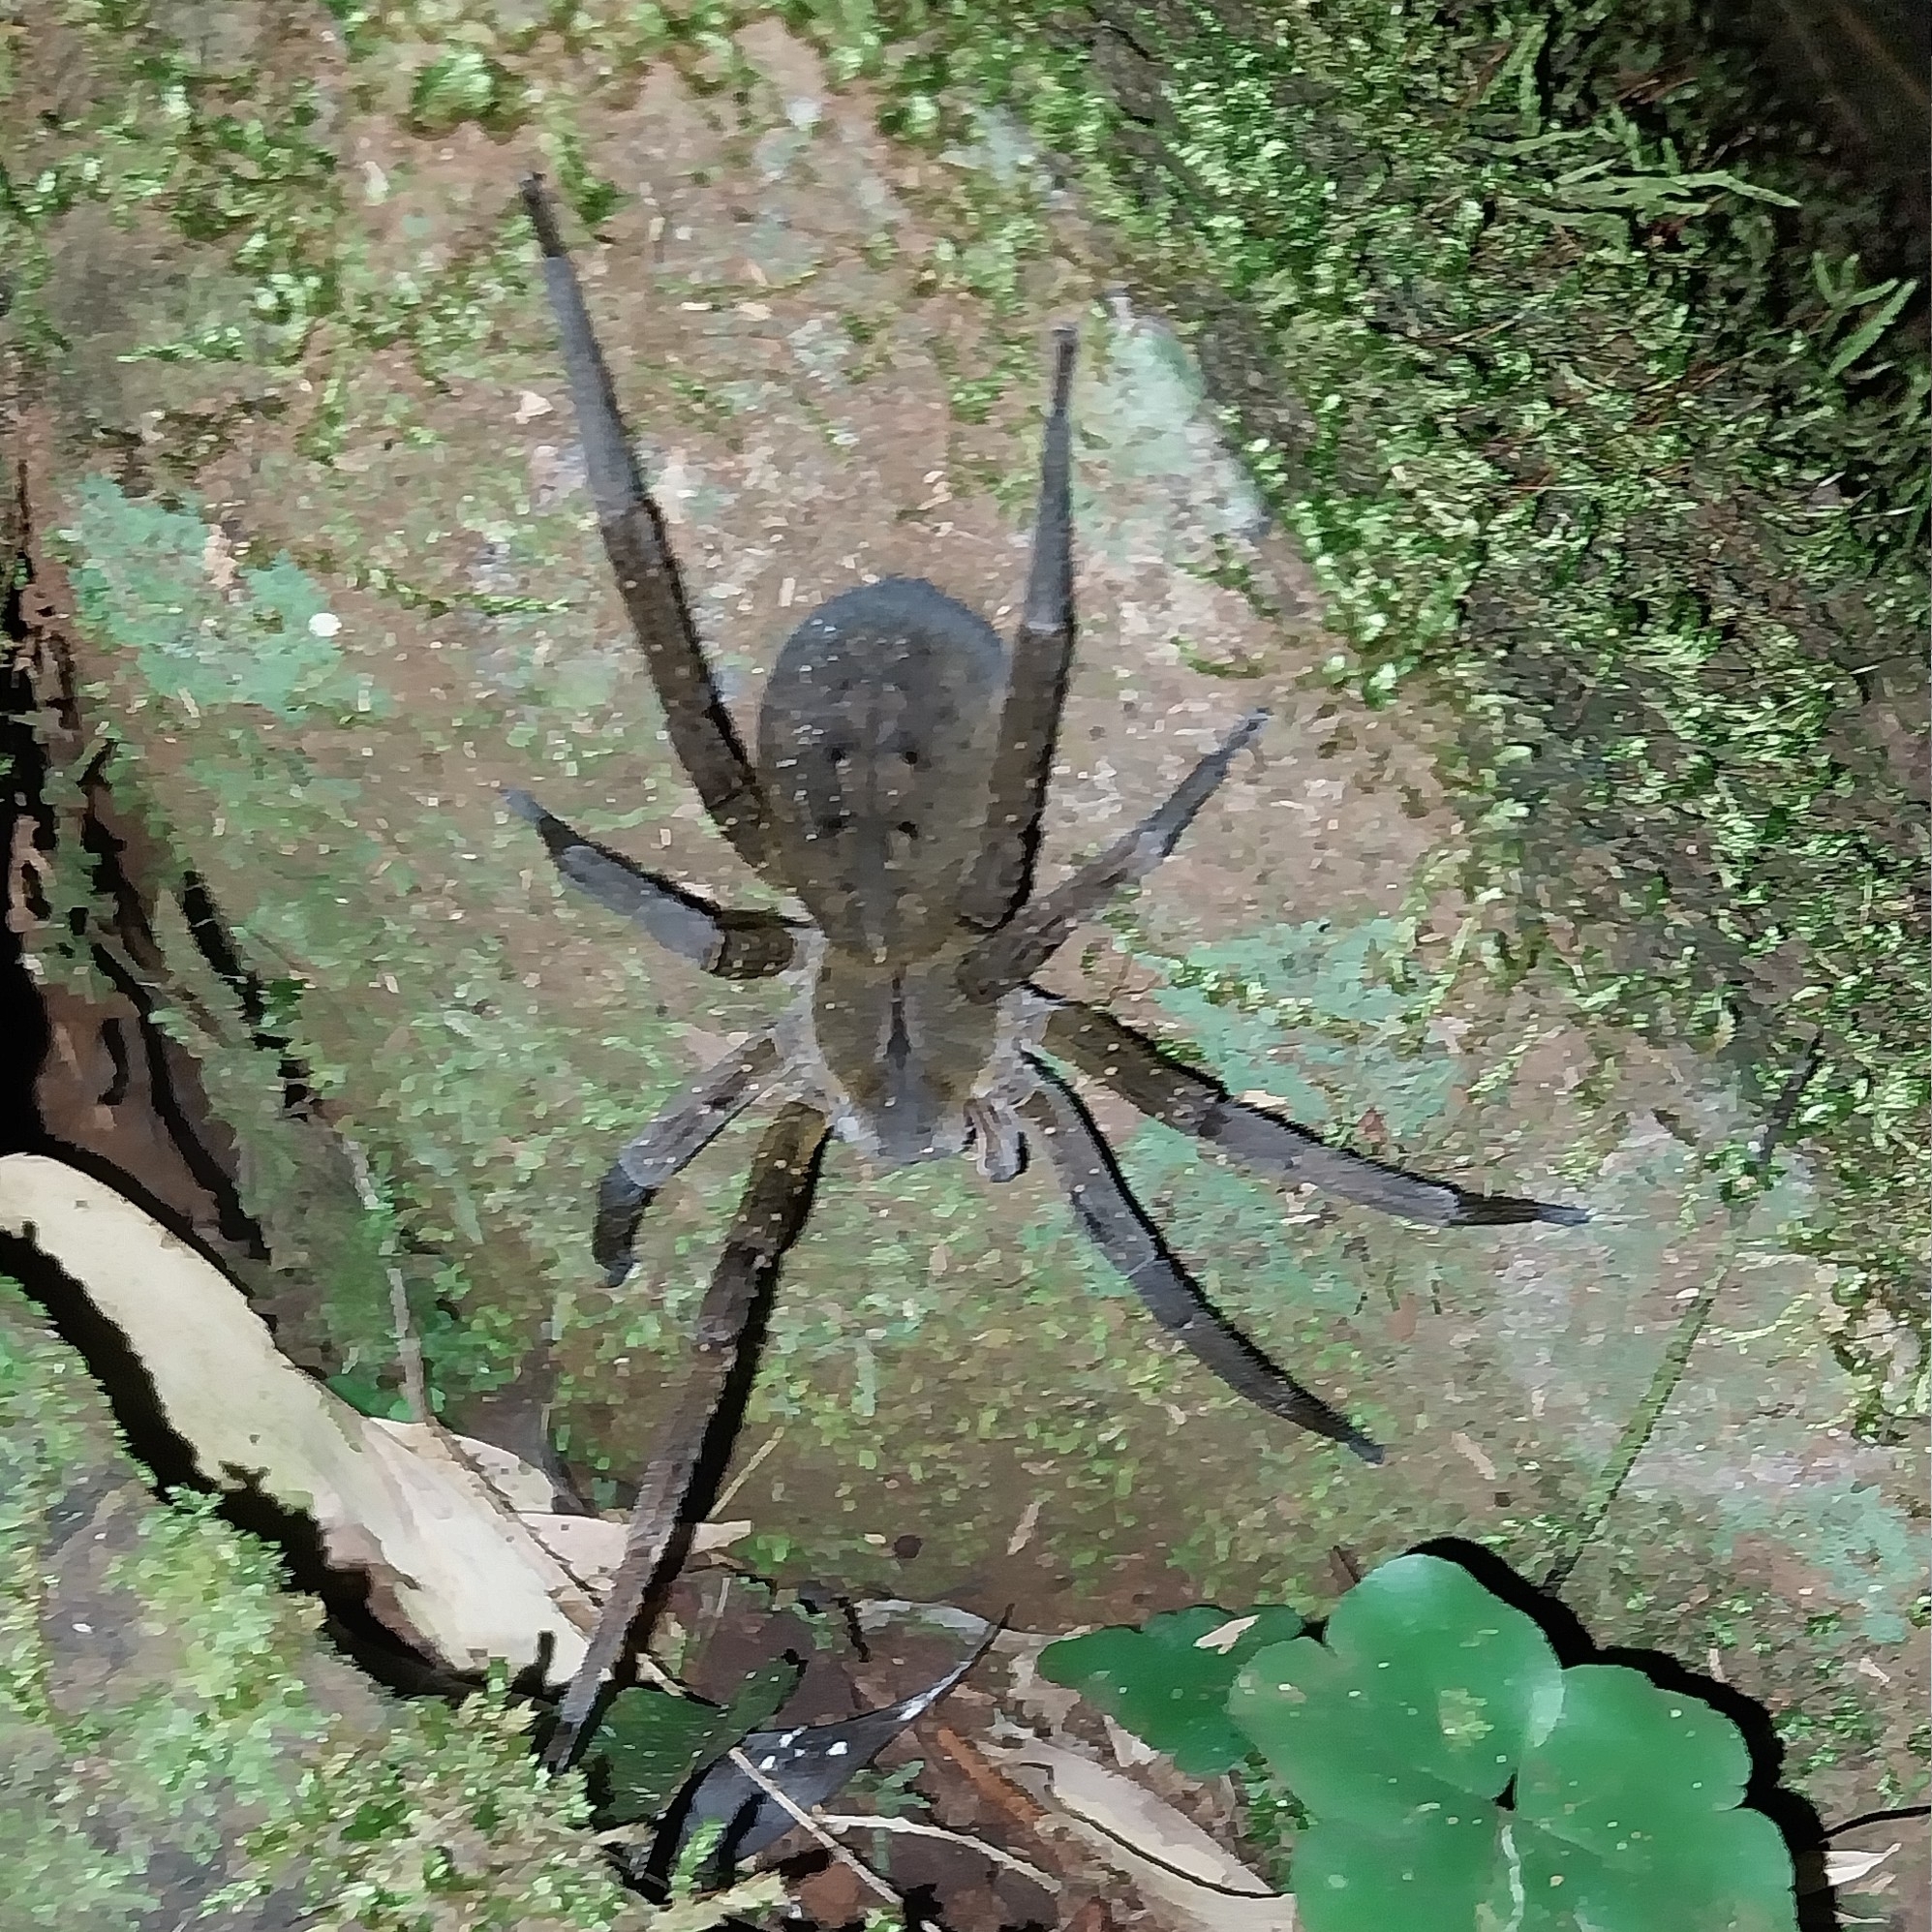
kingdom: Animalia
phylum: Arthropoda
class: Arachnida
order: Araneae
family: Ctenidae
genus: Phoneutria
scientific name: Phoneutria nigriventer
